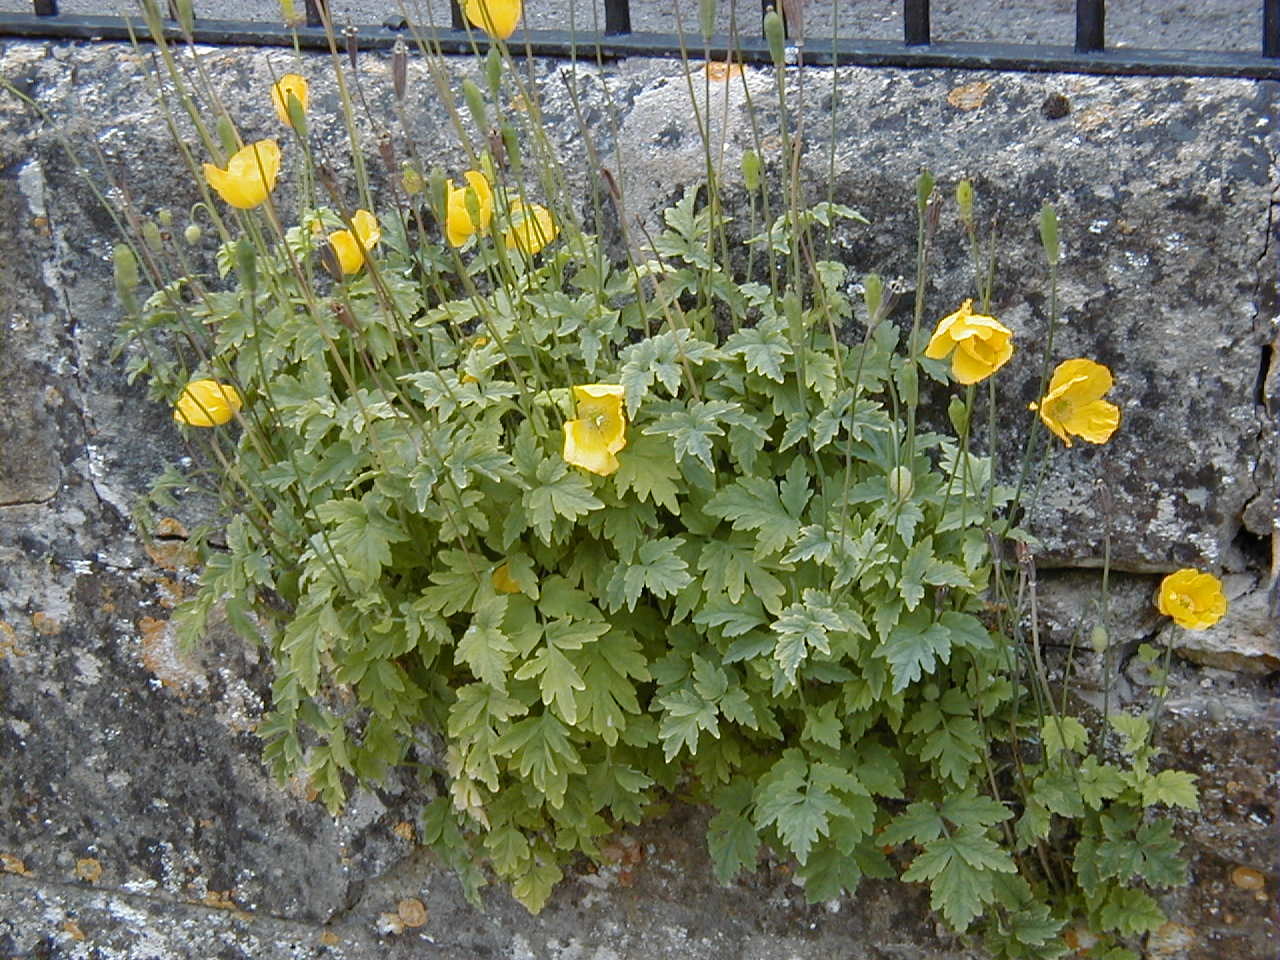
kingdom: Plantae
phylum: Tracheophyta
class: Magnoliopsida
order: Ranunculales
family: Papaveraceae
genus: Papaver
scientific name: Papaver cambricum
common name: Poppy
